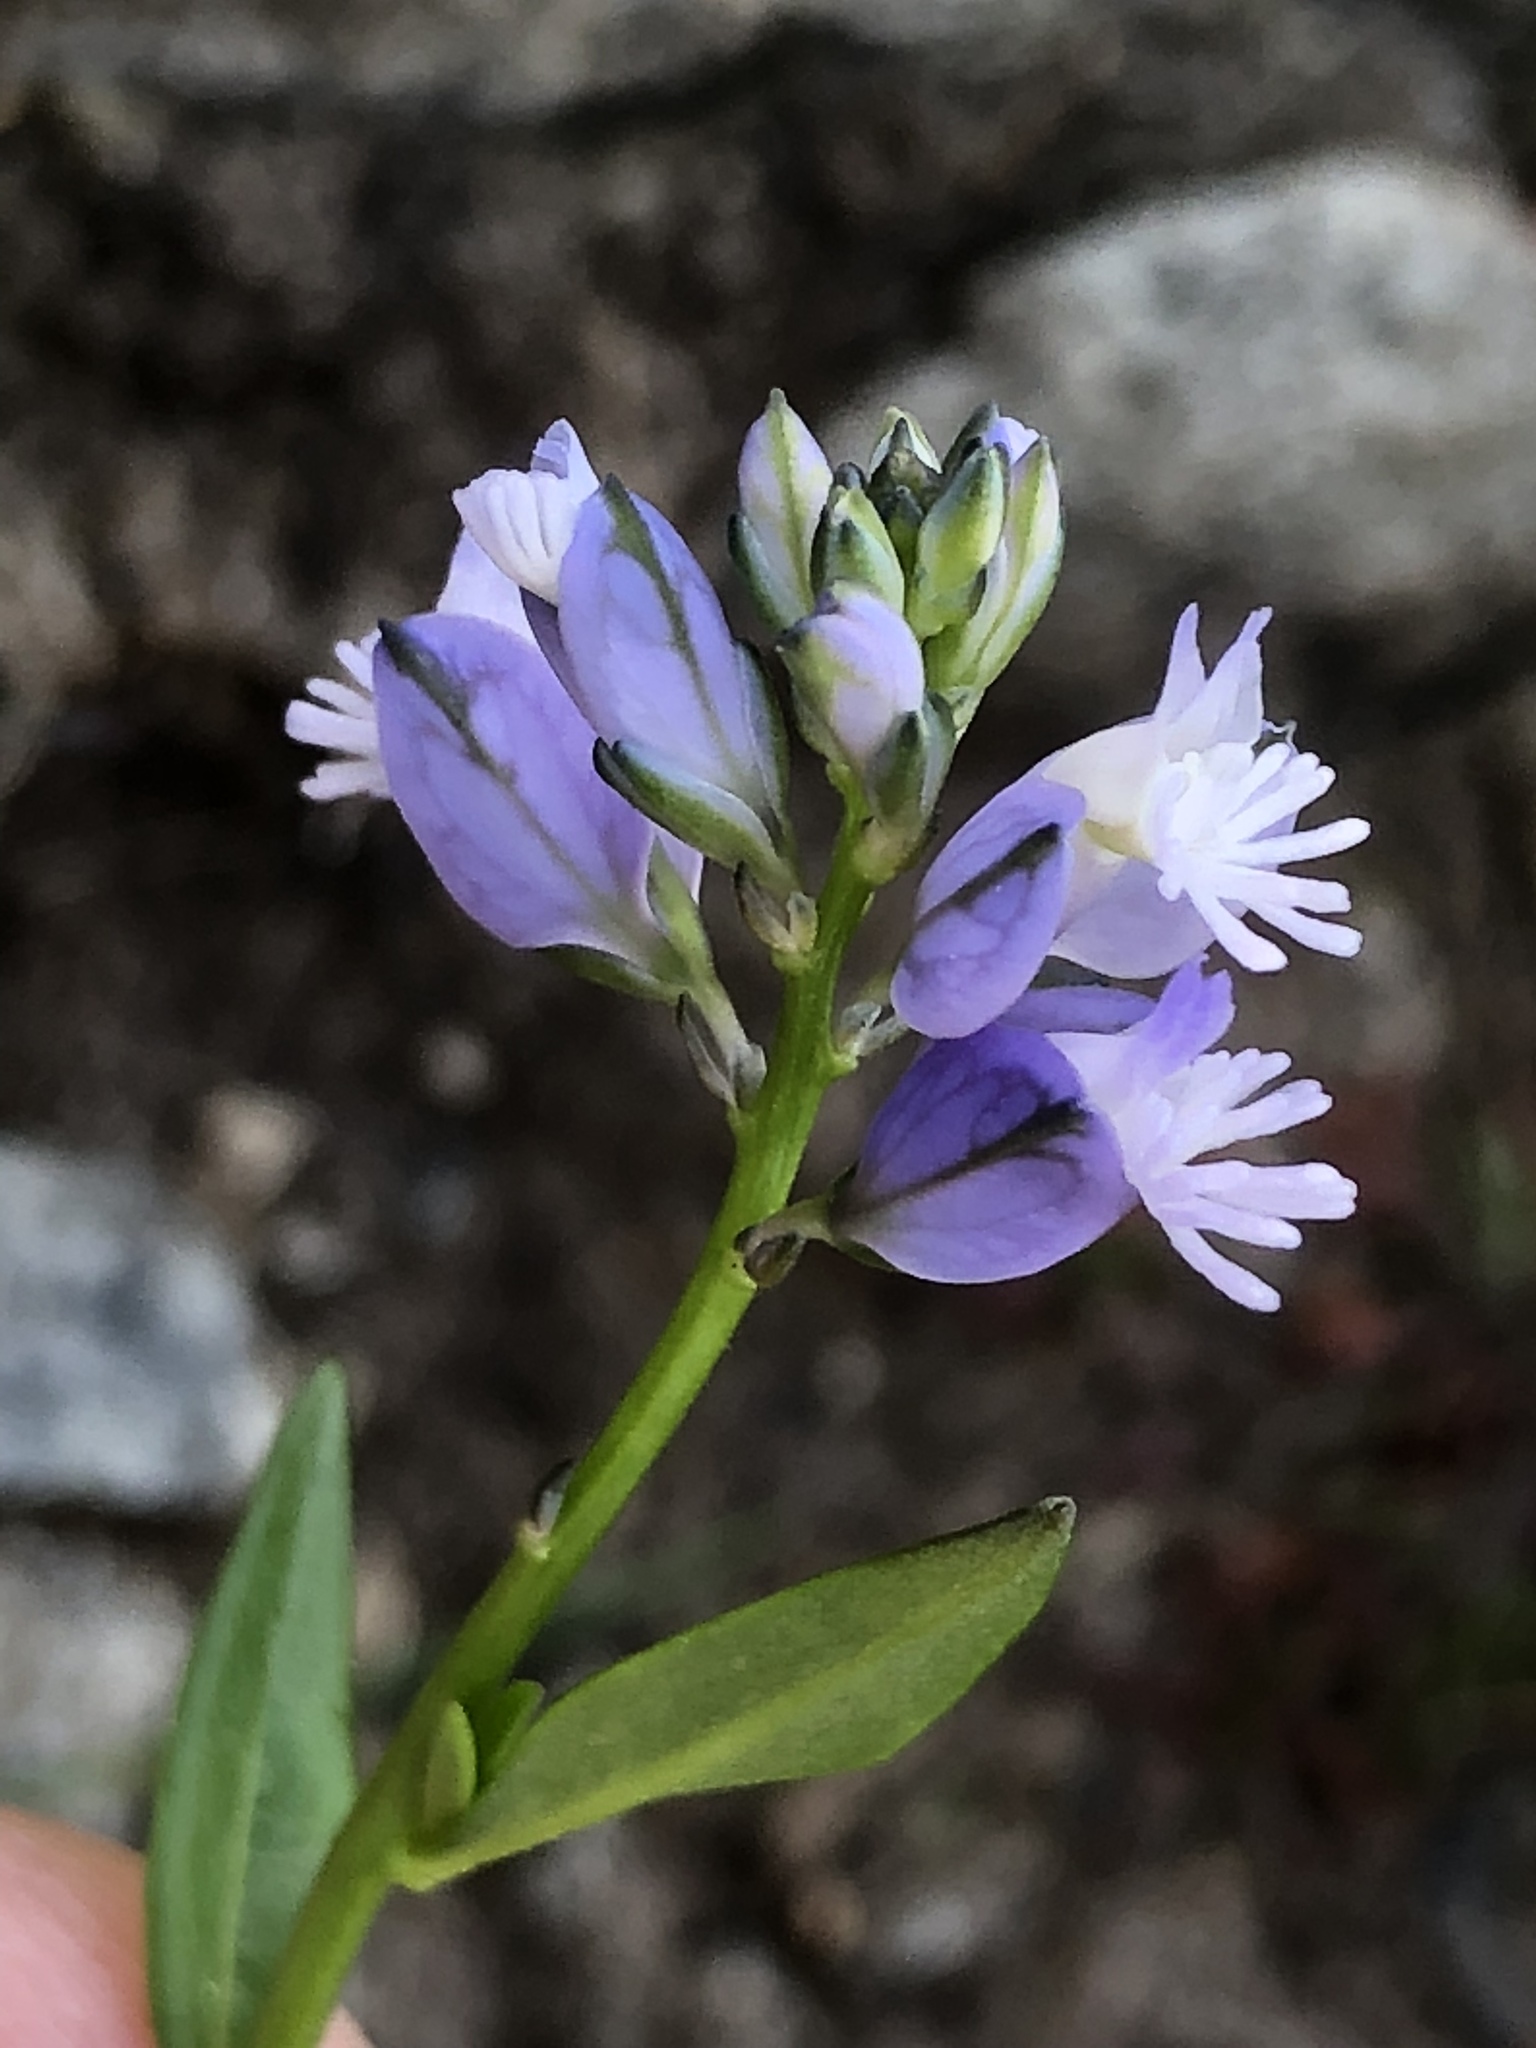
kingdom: Plantae
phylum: Tracheophyta
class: Magnoliopsida
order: Fabales
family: Polygalaceae
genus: Polygala
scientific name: Polygala vulgaris
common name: Common milkwort
